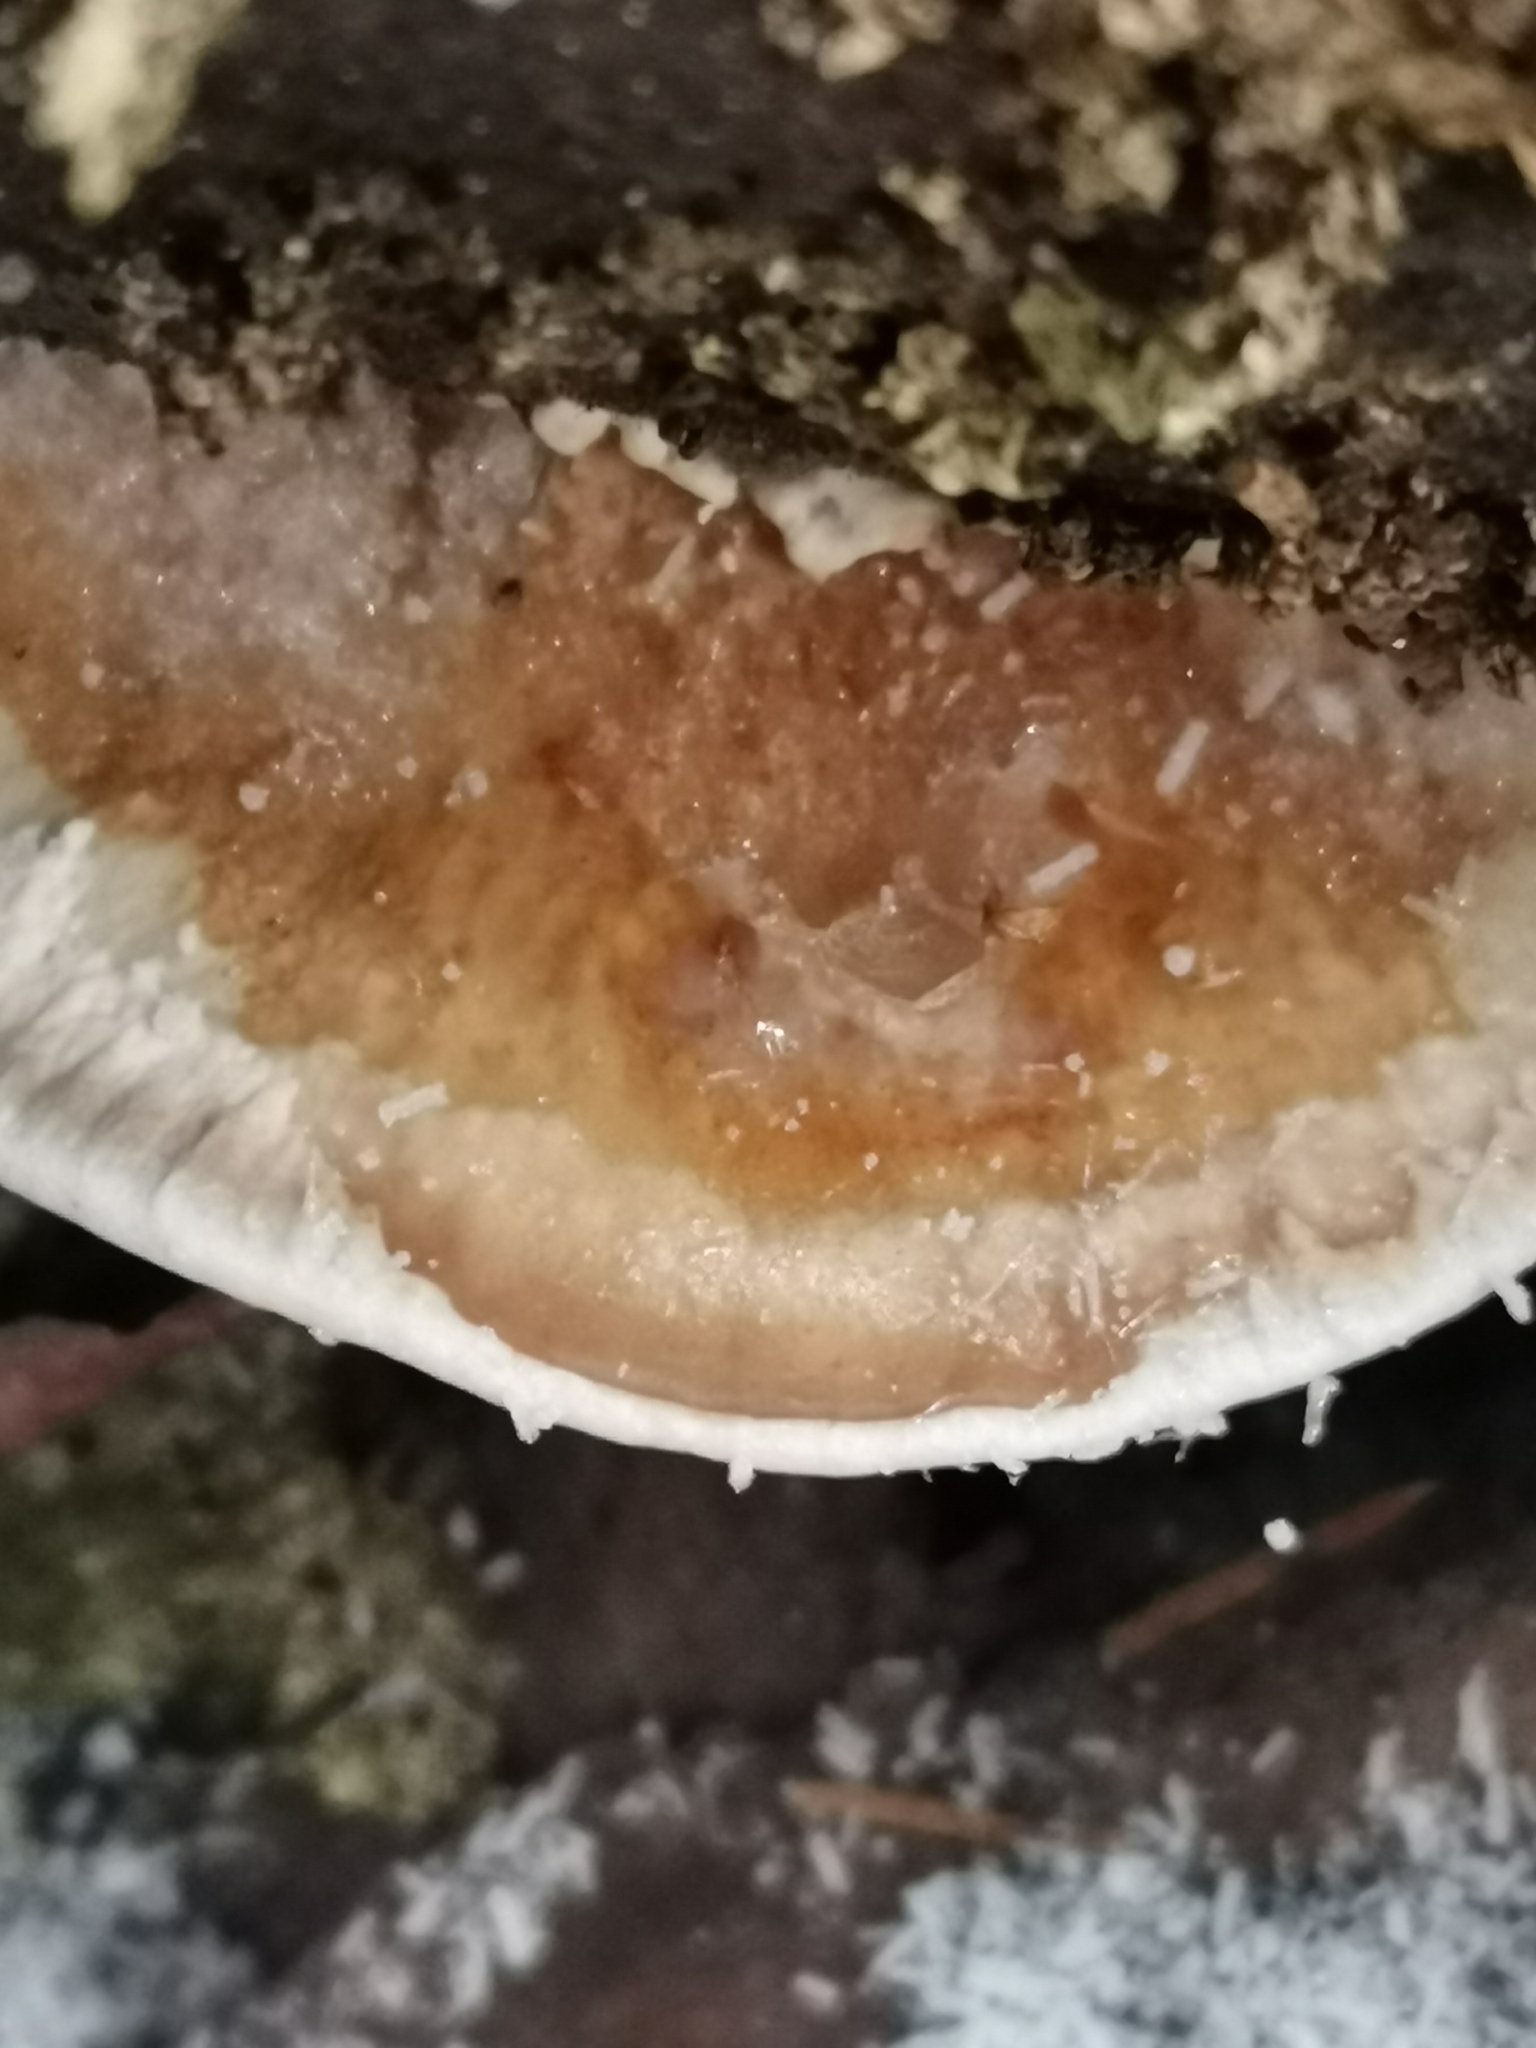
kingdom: Fungi
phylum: Basidiomycota
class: Agaricomycetes
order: Polyporales
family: Polyporaceae
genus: Trametes
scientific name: Trametes ochracea
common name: Ochre bracket
